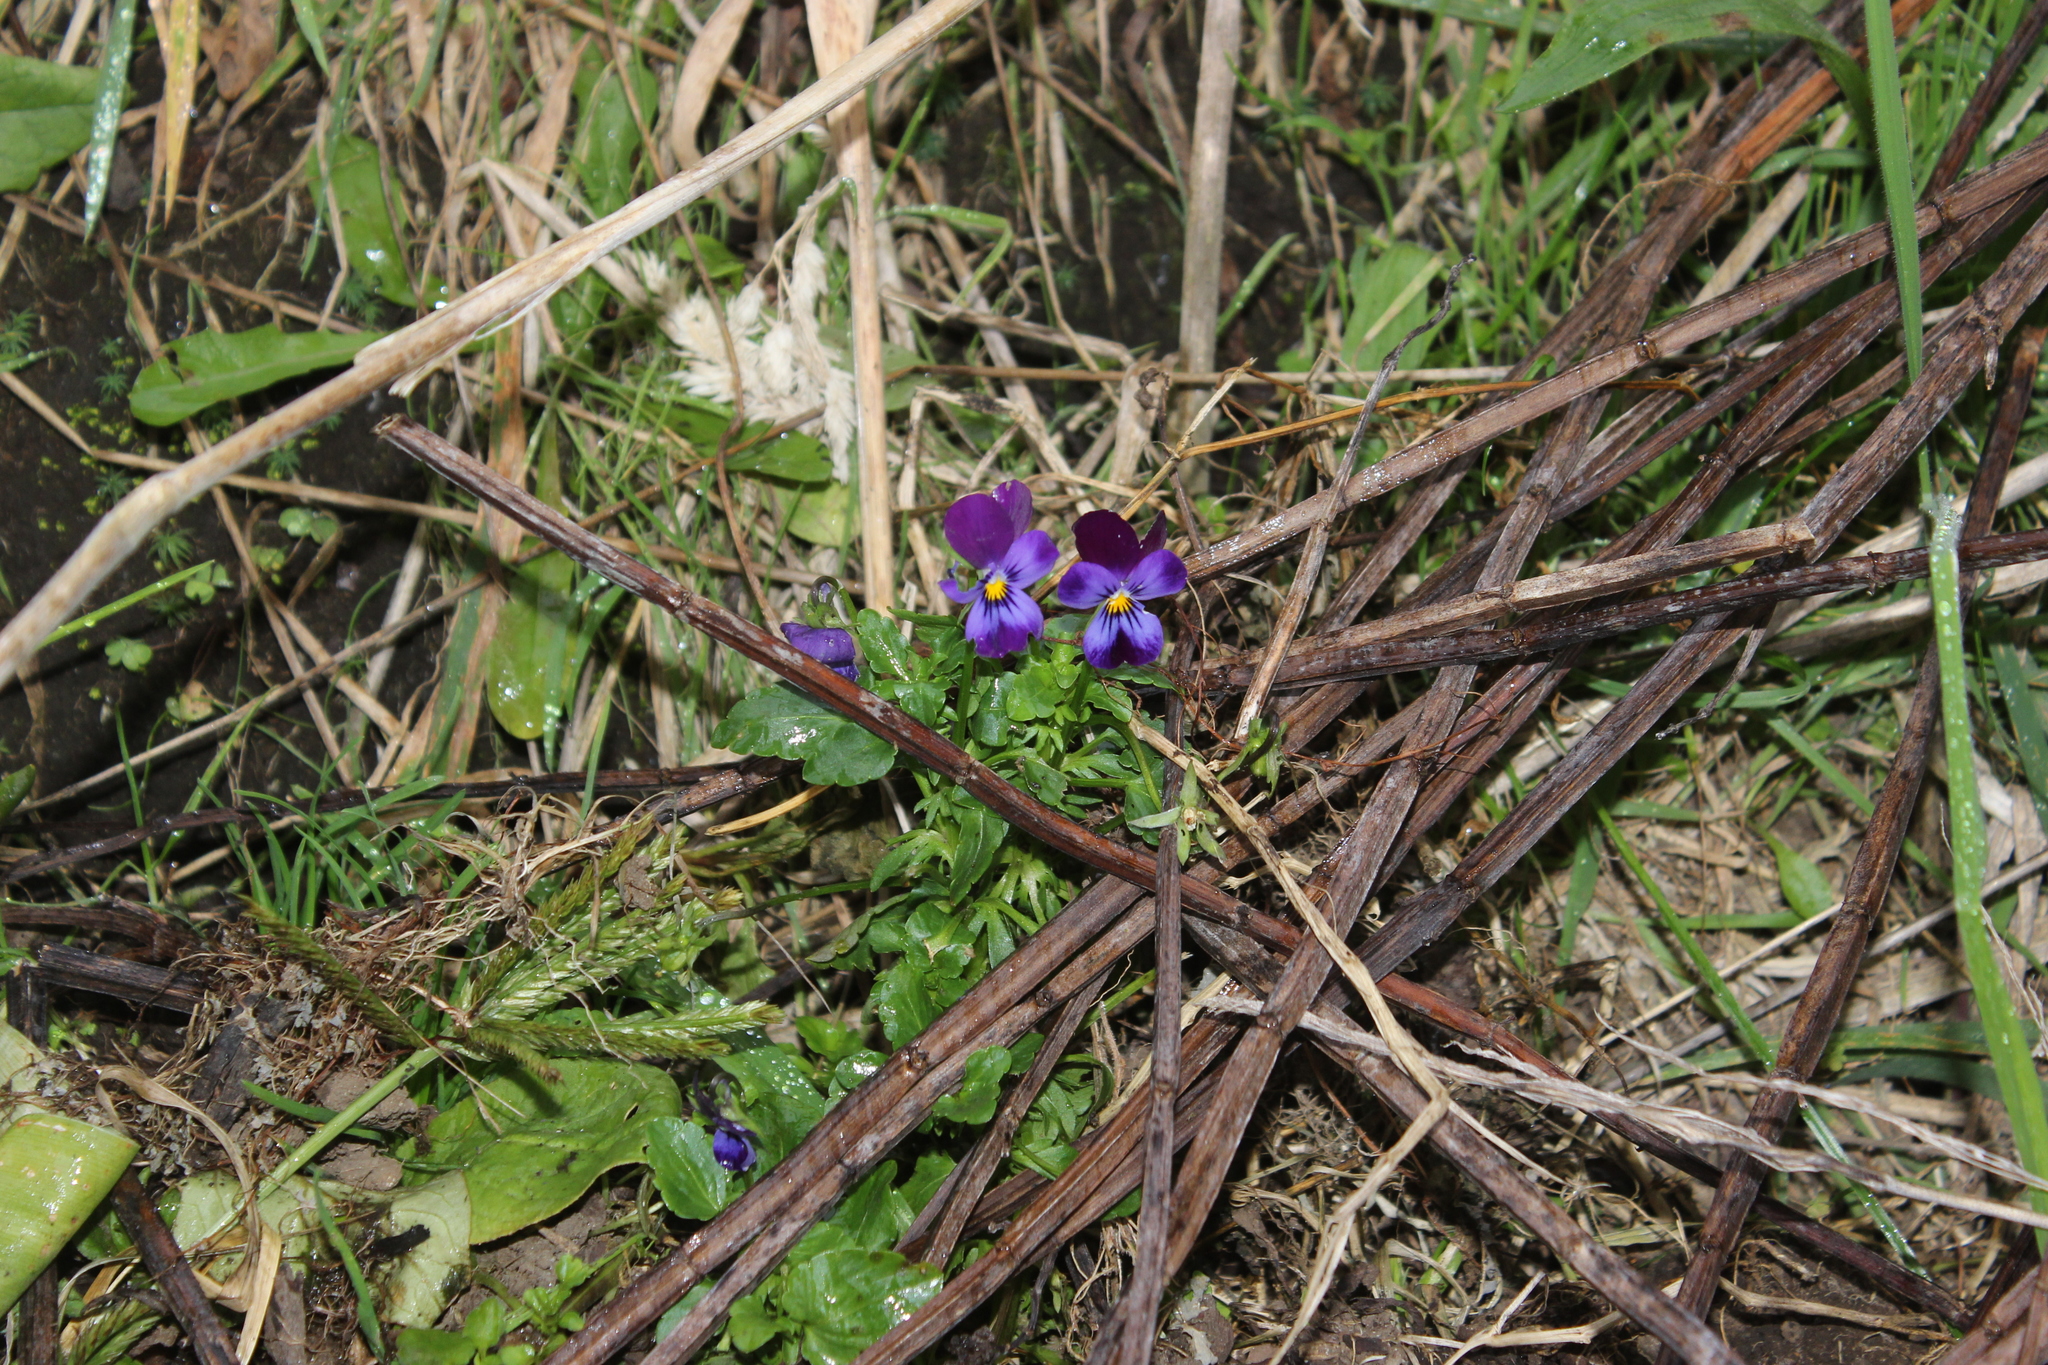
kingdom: Plantae
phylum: Tracheophyta
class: Magnoliopsida
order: Malpighiales
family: Violaceae
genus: Viola
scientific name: Viola wittrockiana
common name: Garden pansy
